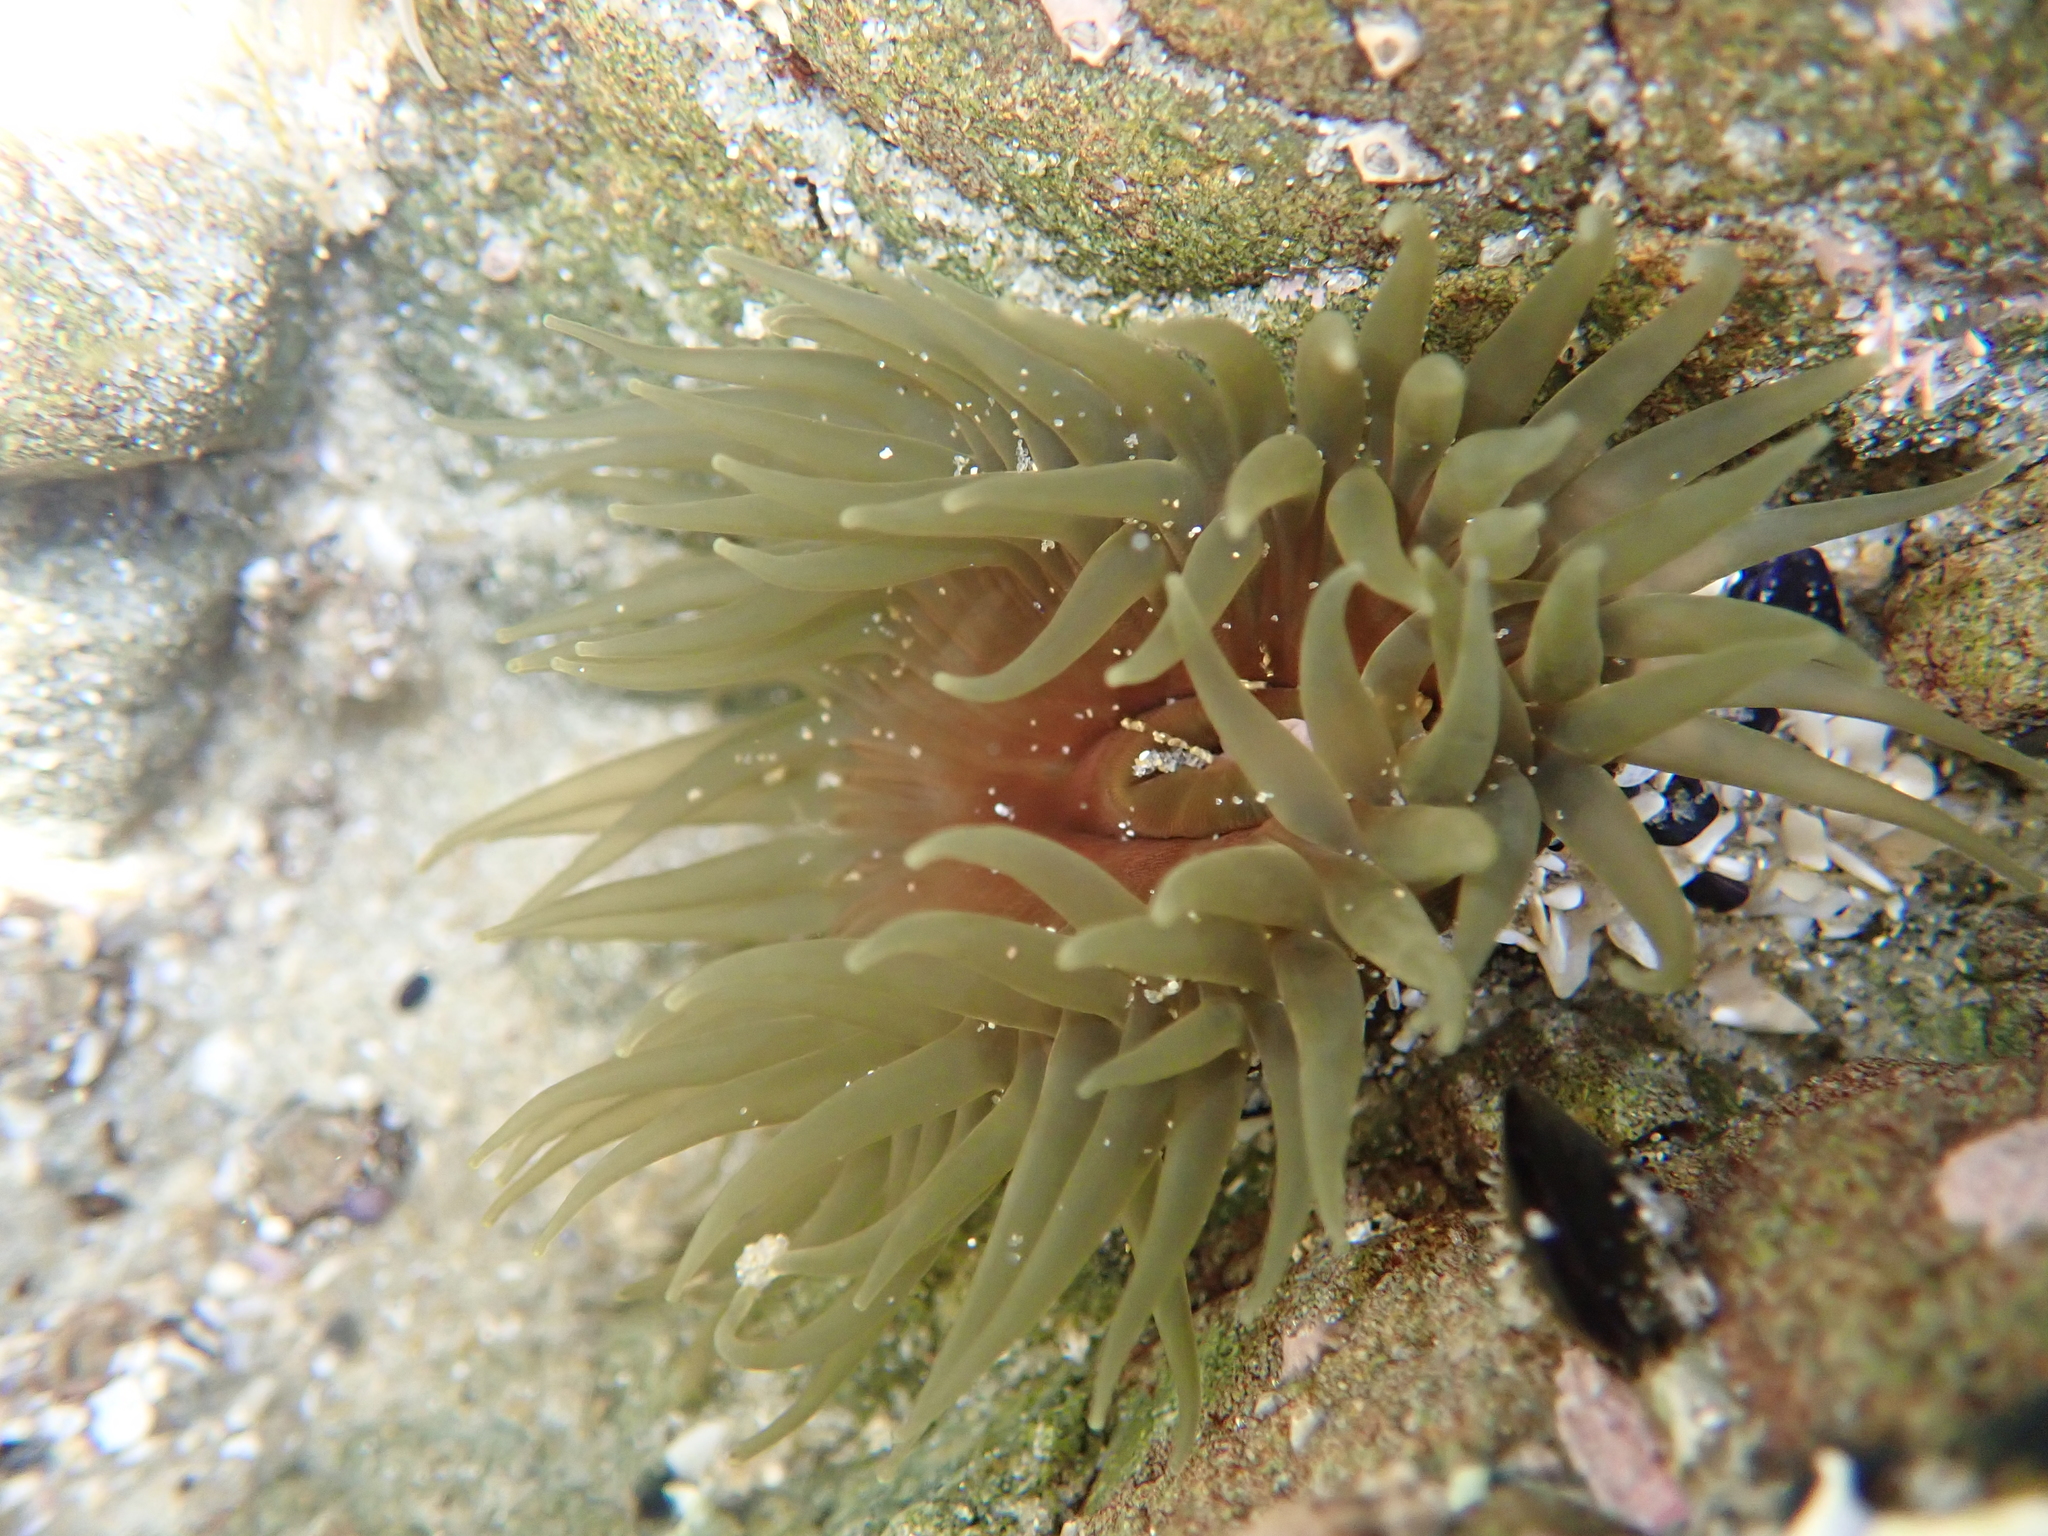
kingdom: Animalia
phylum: Cnidaria
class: Anthozoa
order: Actiniaria
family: Actiniidae
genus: Isactinia
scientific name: Isactinia olivacea
